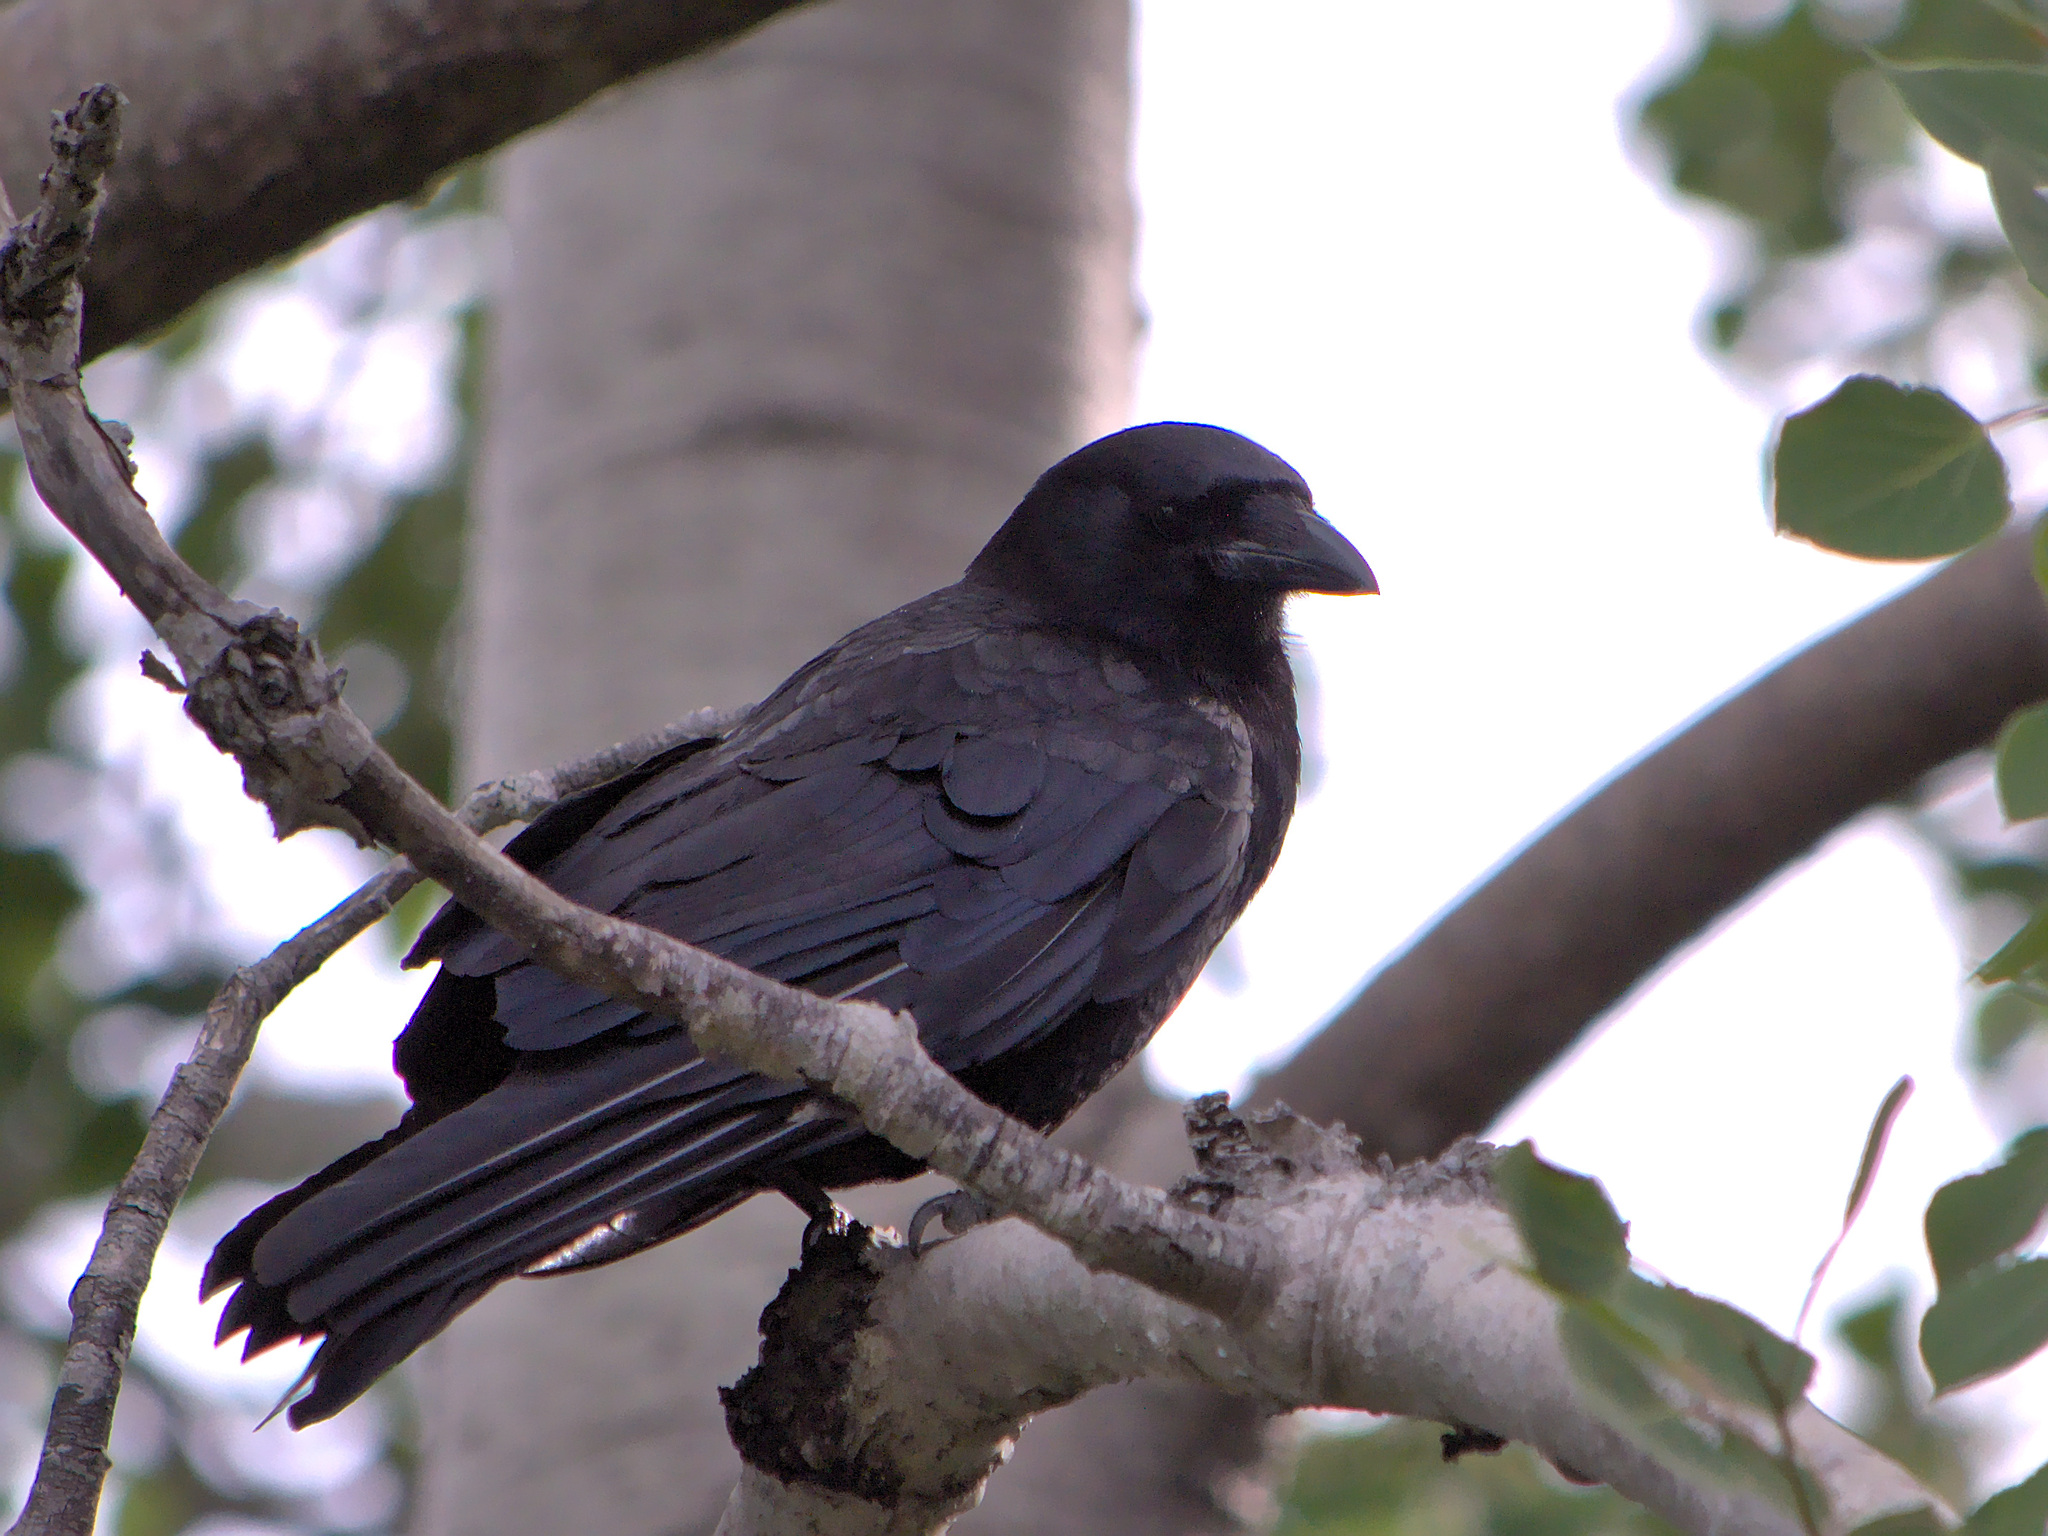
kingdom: Animalia
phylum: Chordata
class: Aves
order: Passeriformes
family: Corvidae
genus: Corvus
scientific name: Corvus brachyrhynchos
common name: American crow
